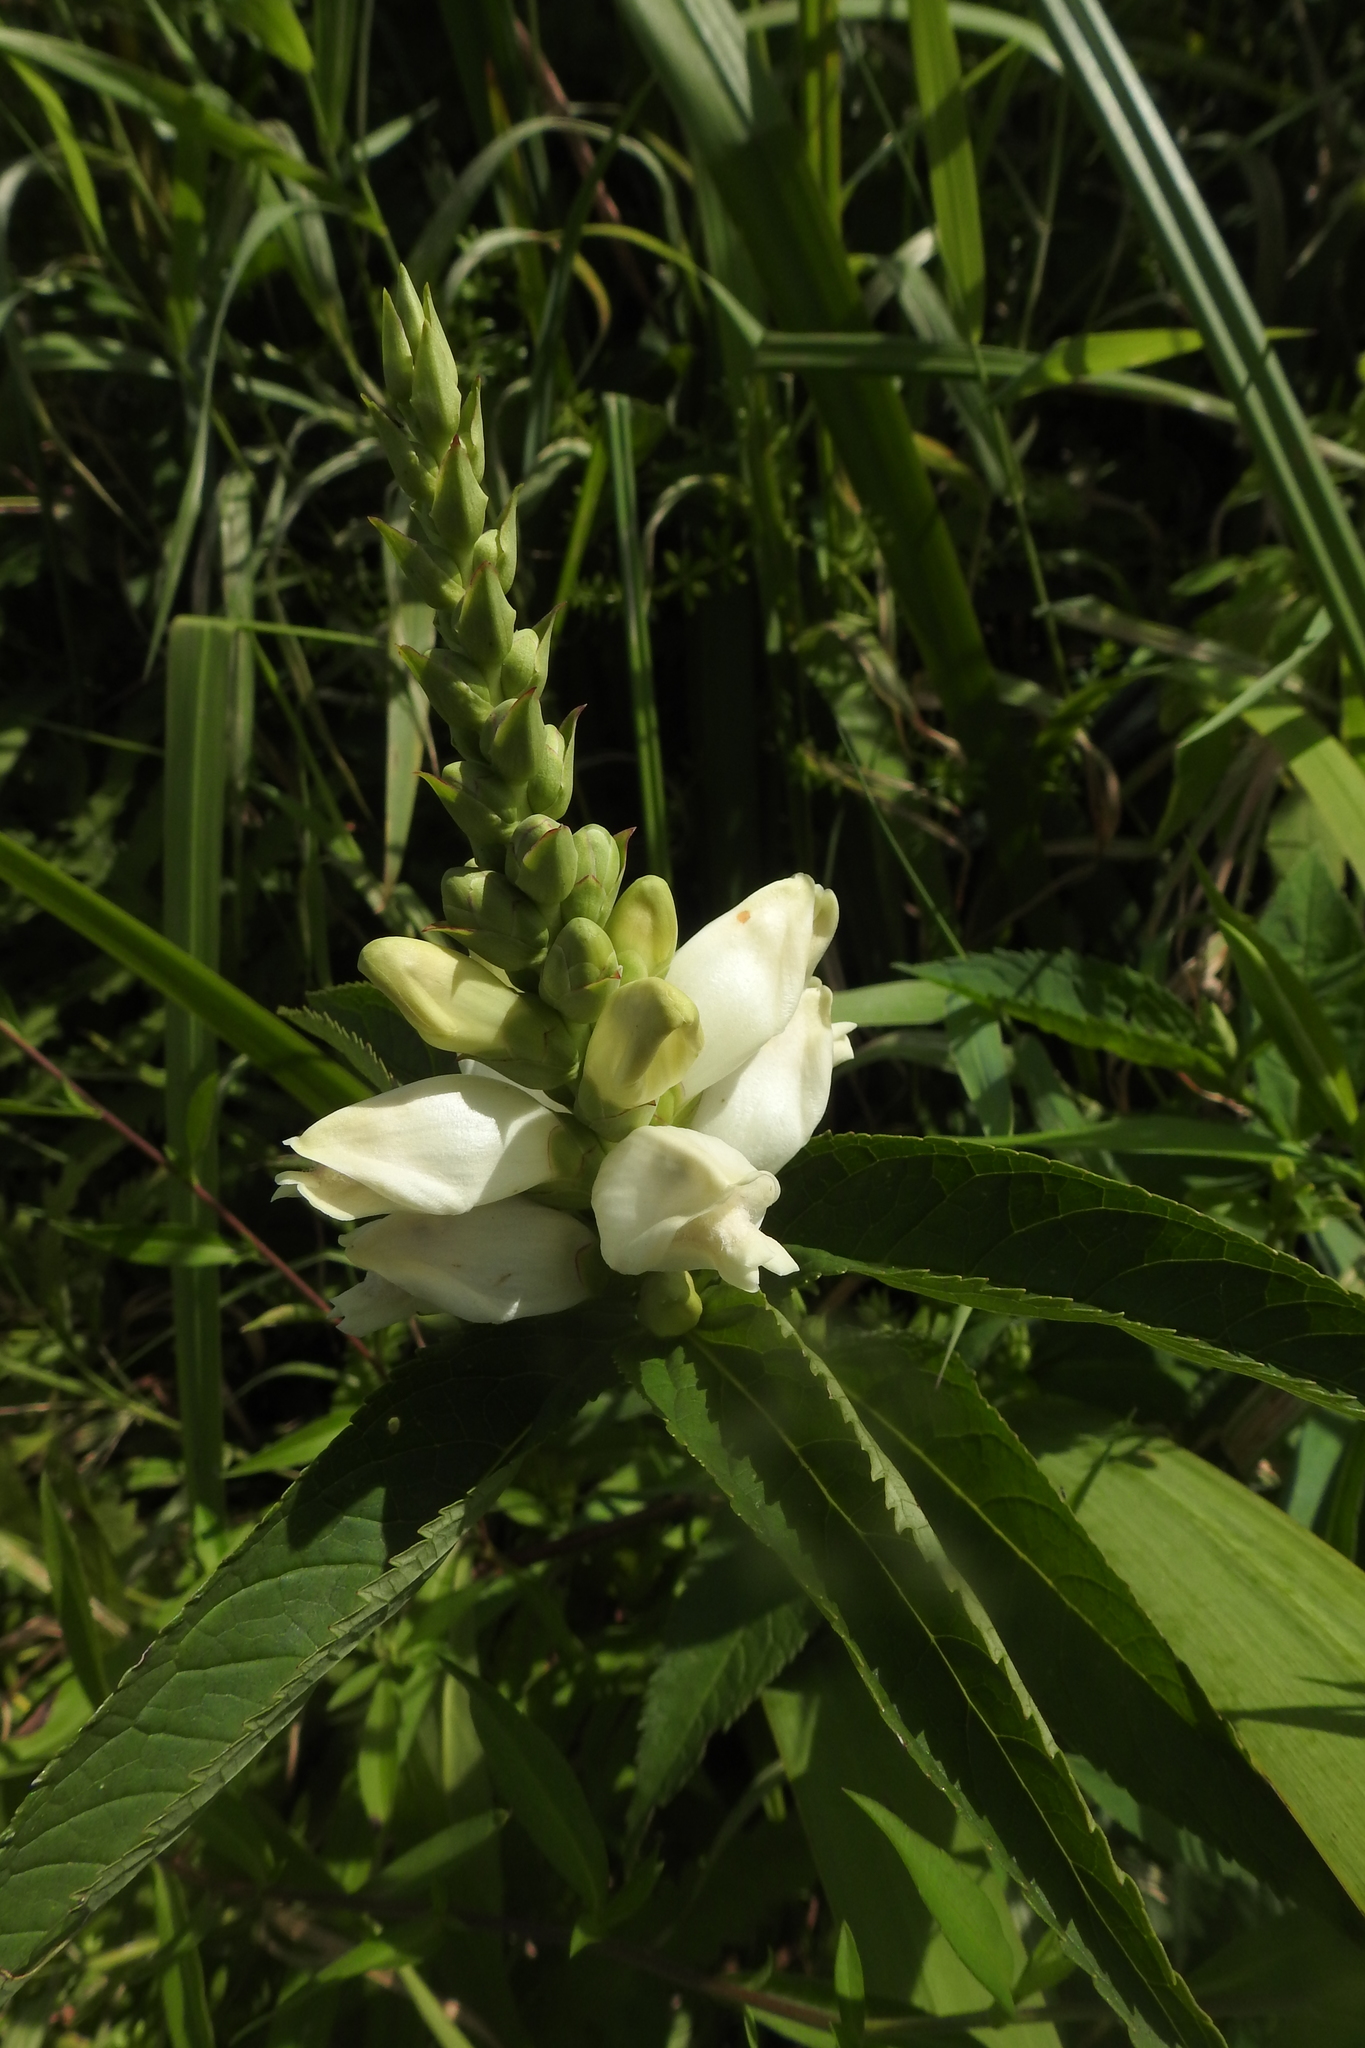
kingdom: Plantae
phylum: Tracheophyta
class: Magnoliopsida
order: Lamiales
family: Plantaginaceae
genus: Chelone
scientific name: Chelone glabra
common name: Snakehead
